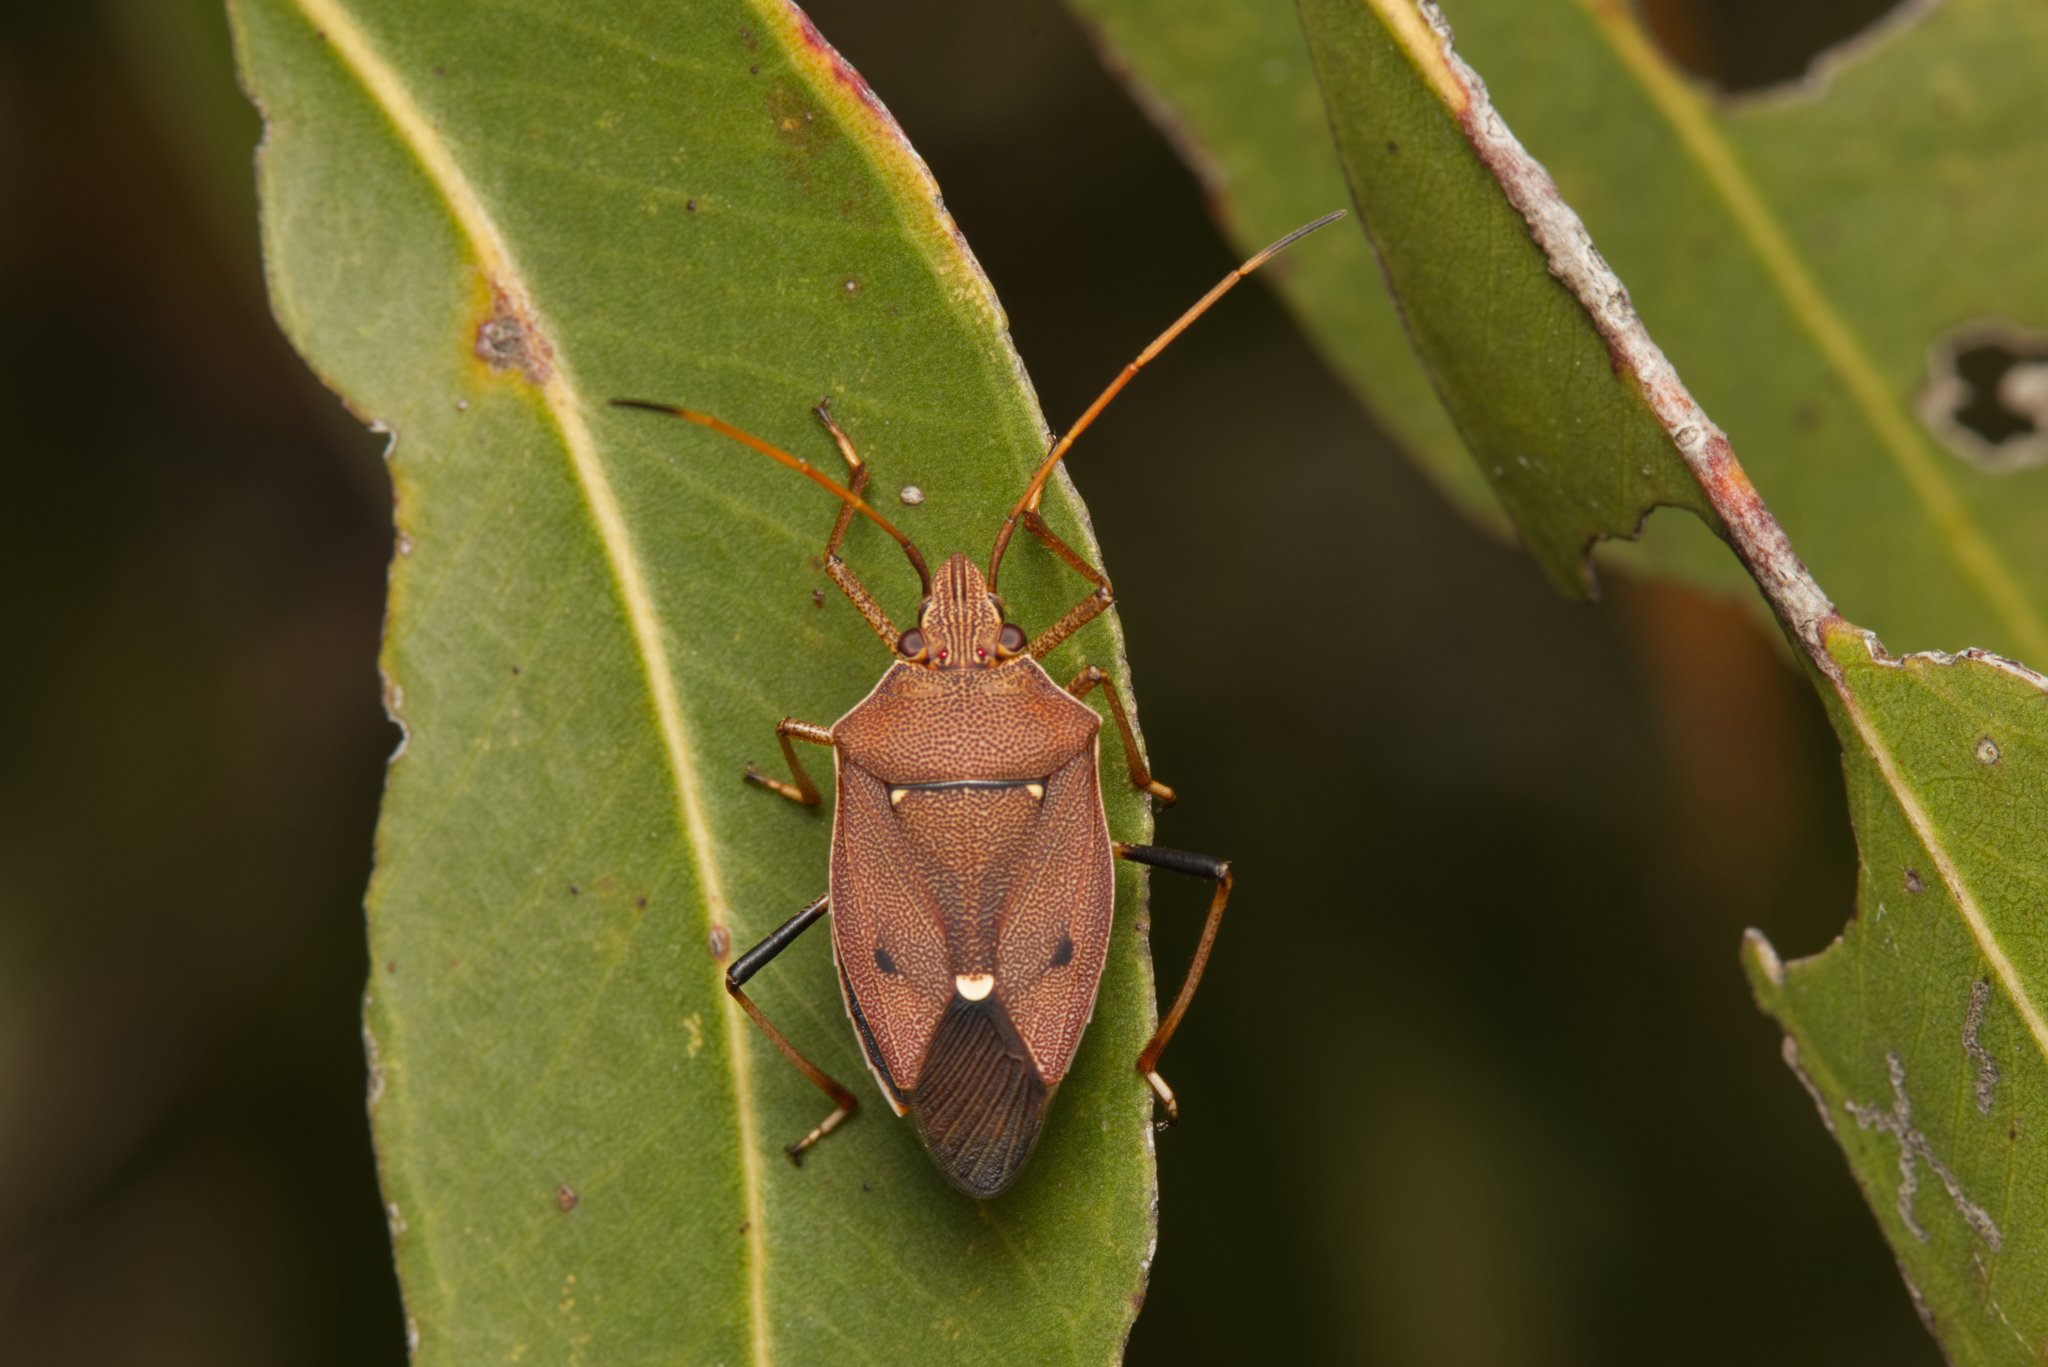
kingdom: Animalia
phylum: Arthropoda
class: Insecta
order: Hemiptera
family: Pentatomidae
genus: Poecilometis
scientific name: Poecilometis
